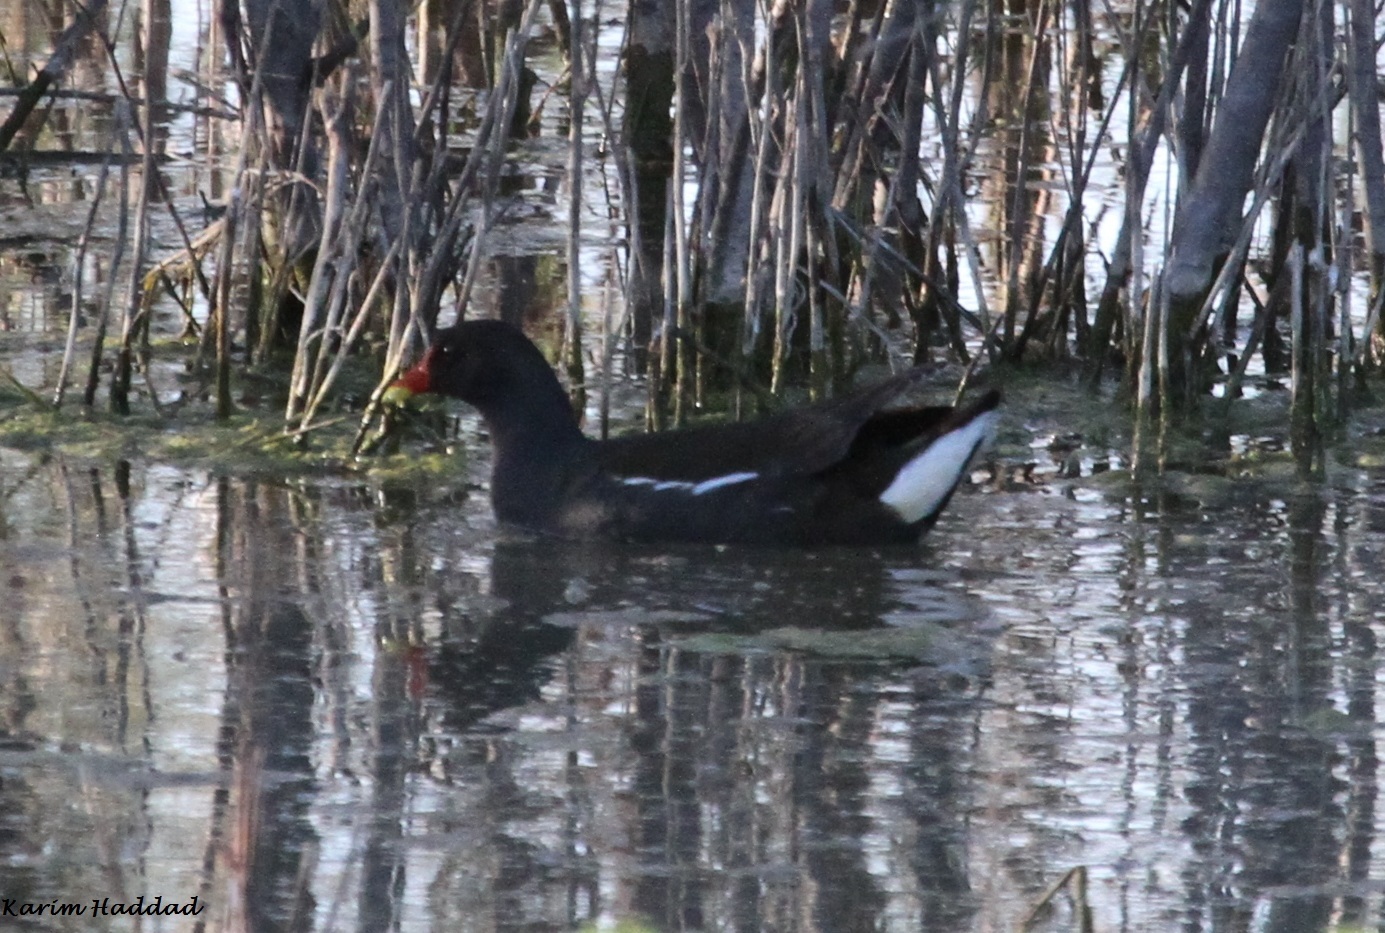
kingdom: Animalia
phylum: Chordata
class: Aves
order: Gruiformes
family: Rallidae
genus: Gallinula
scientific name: Gallinula chloropus
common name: Common moorhen
